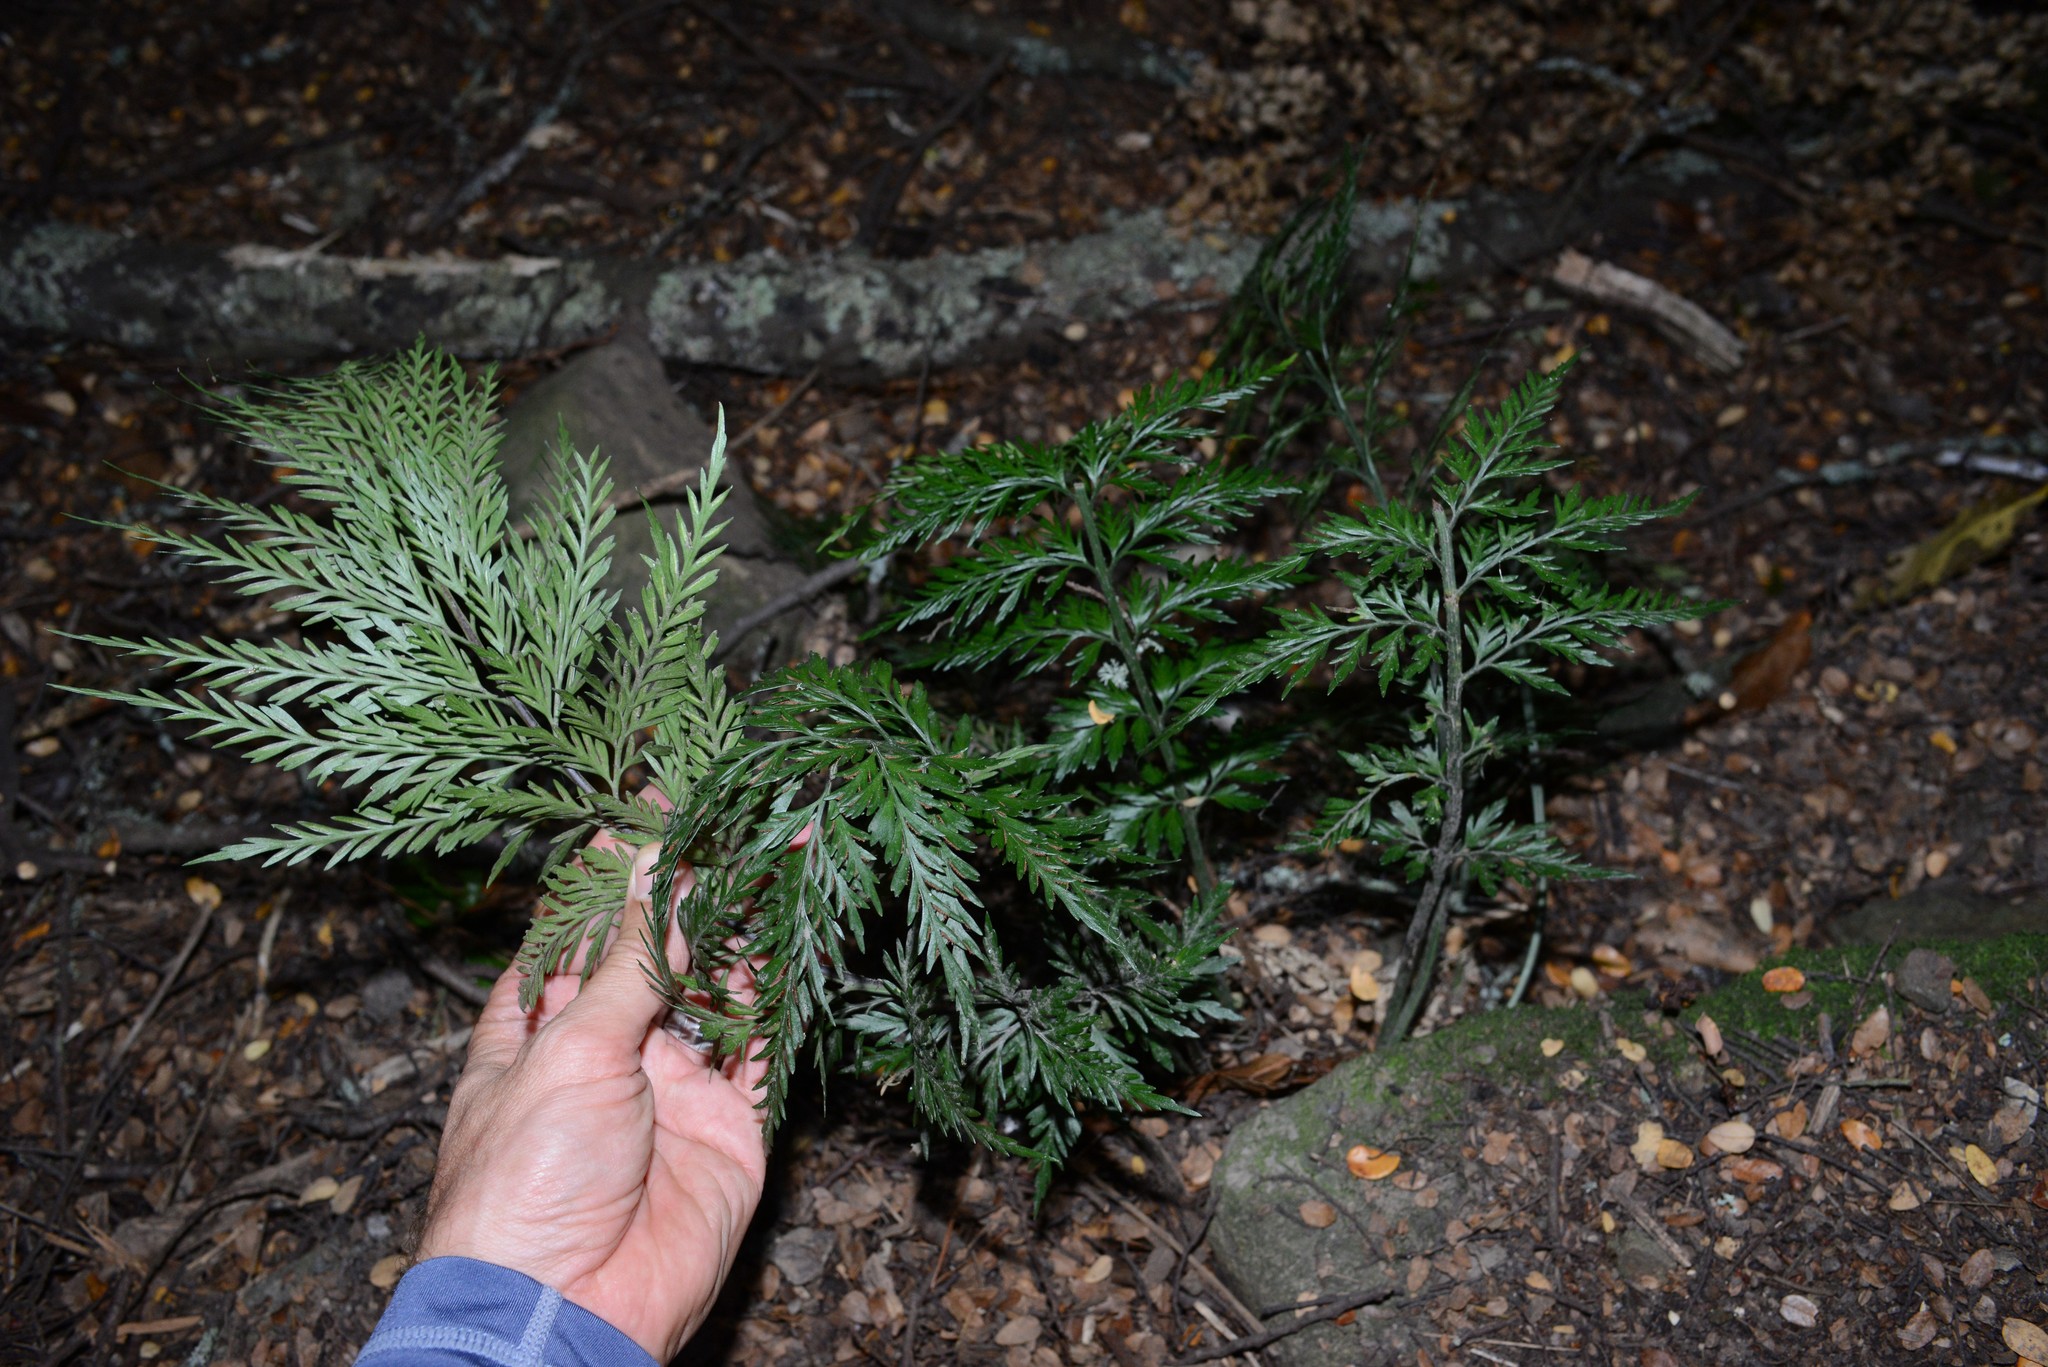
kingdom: Plantae
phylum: Tracheophyta
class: Polypodiopsida
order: Polypodiales
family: Aspleniaceae
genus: Asplenium
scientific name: Asplenium appendiculatum
